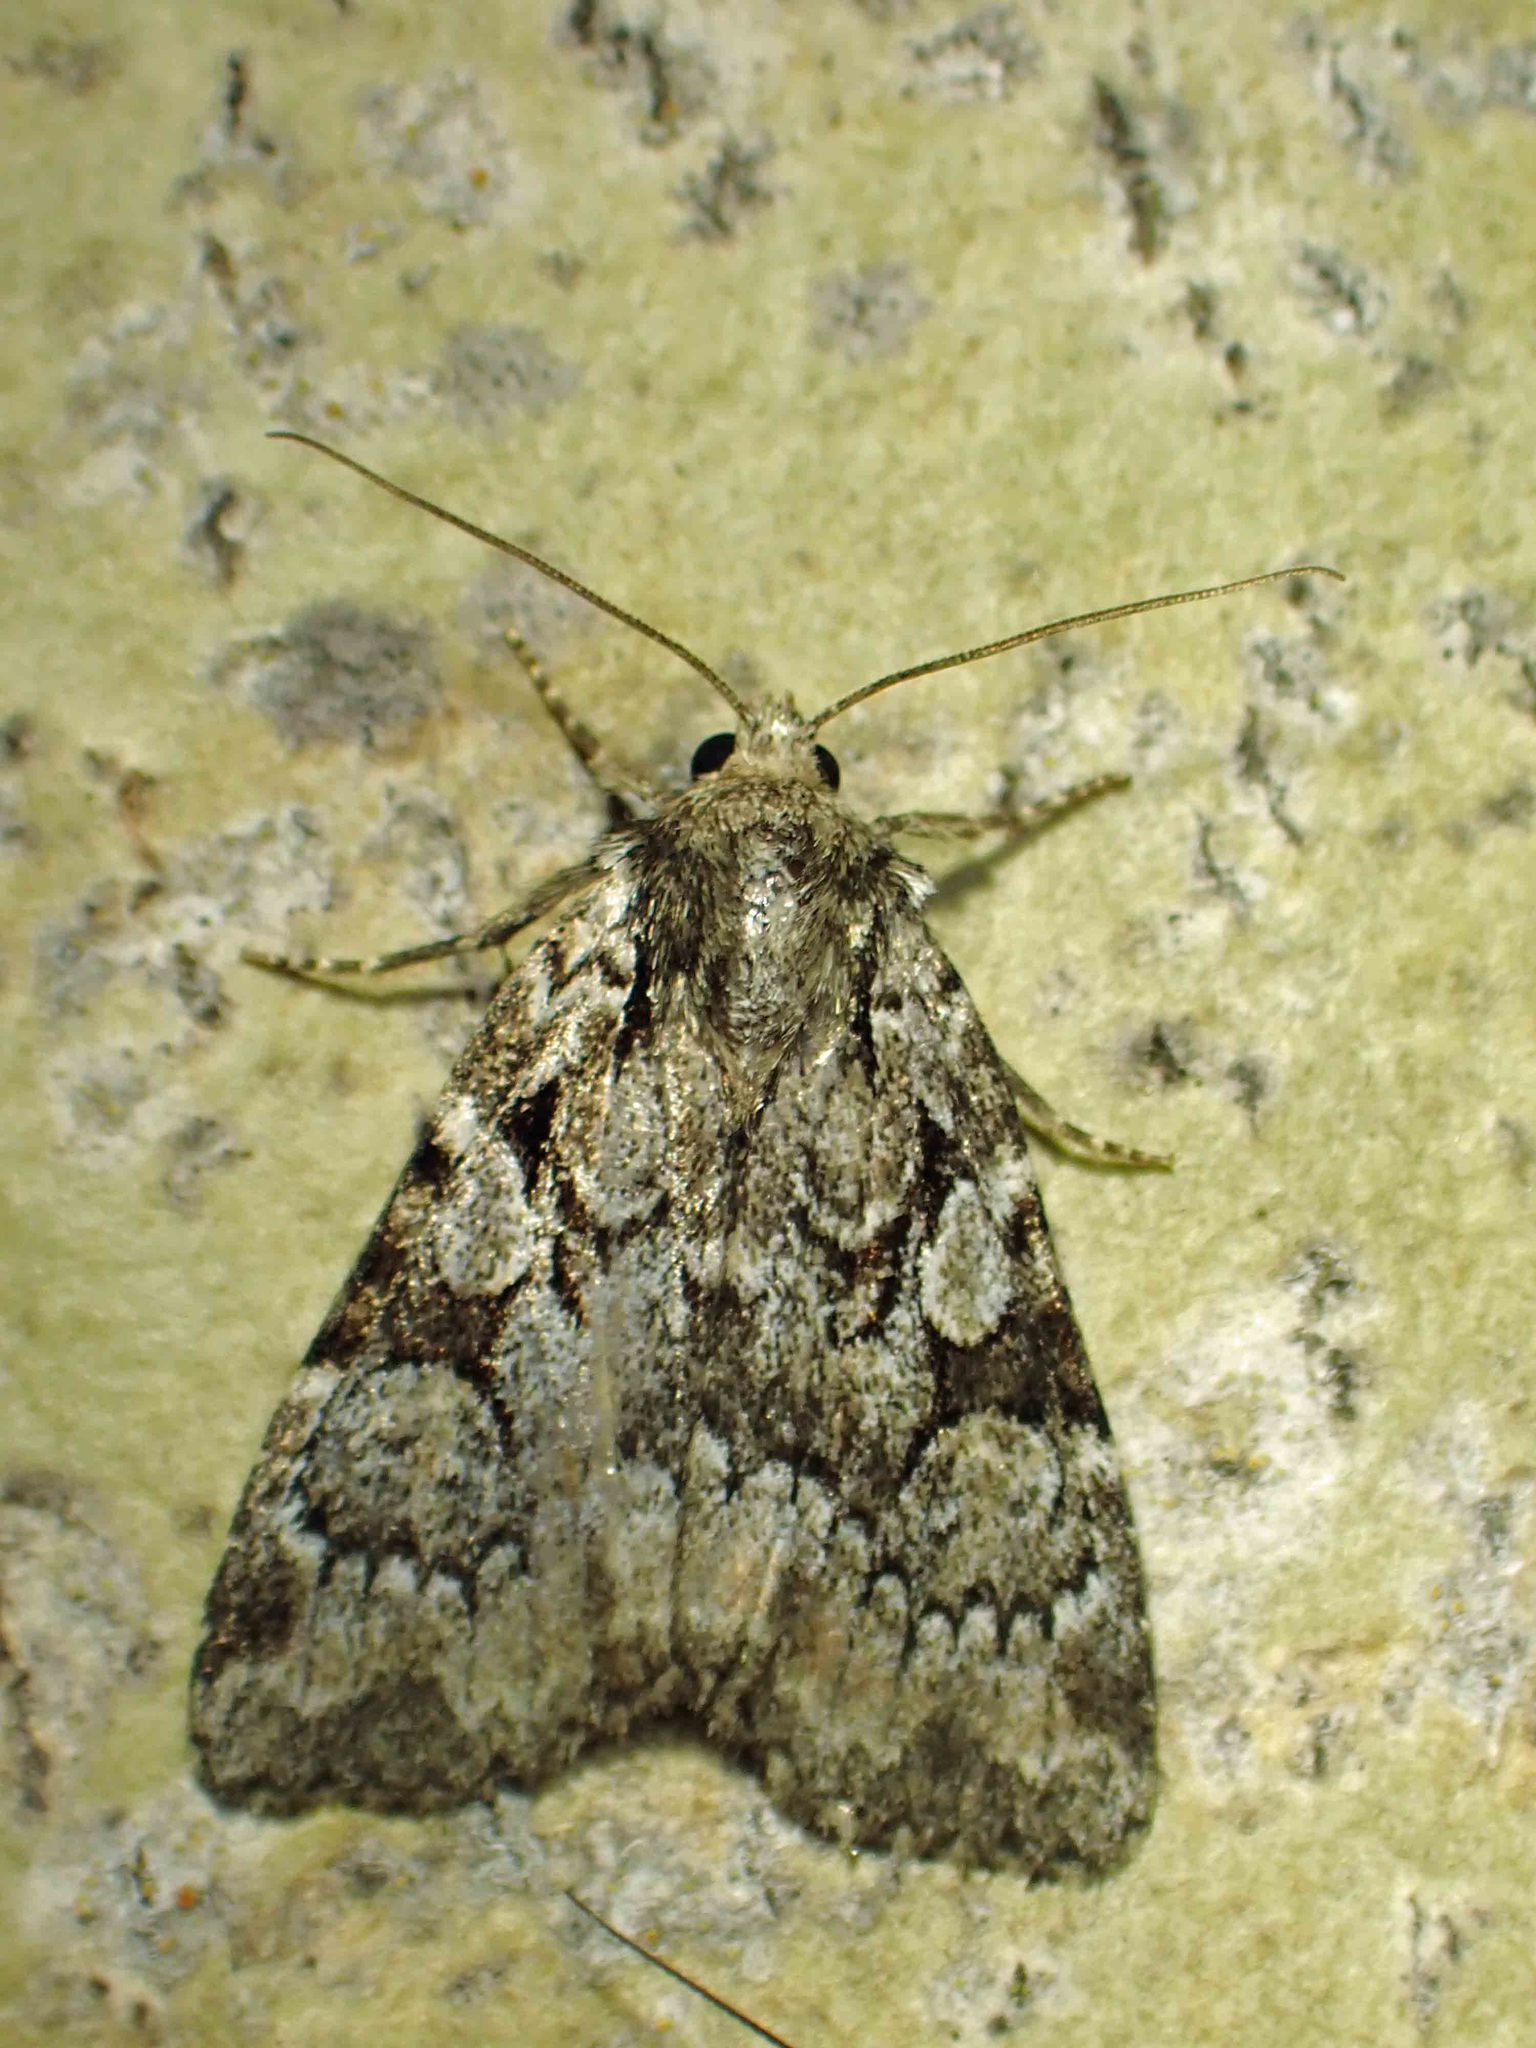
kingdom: Animalia
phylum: Arthropoda
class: Insecta
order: Lepidoptera
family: Noctuidae
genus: Aplectoides
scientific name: Aplectoides condita
